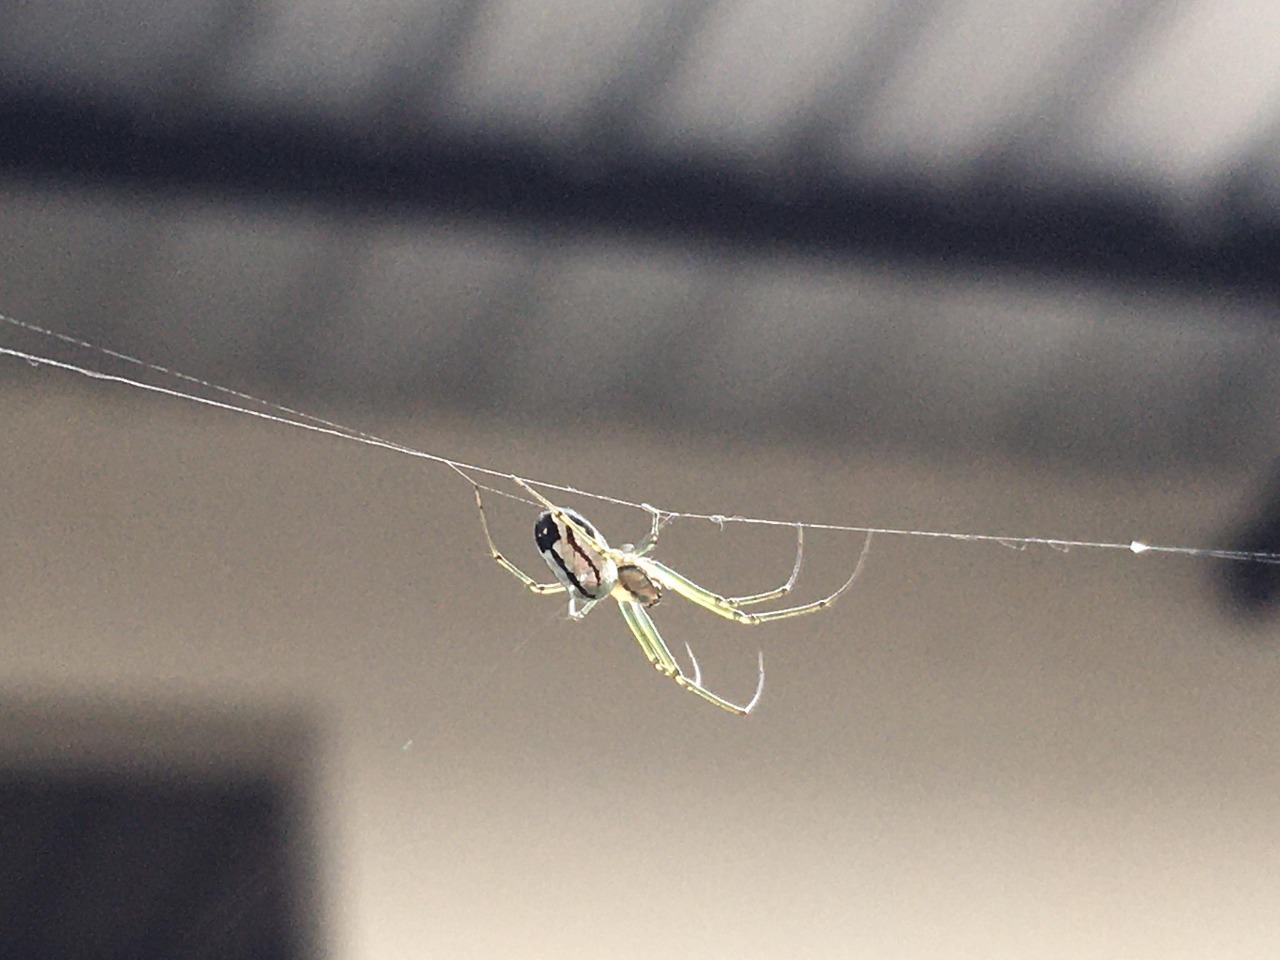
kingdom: Animalia
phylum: Arthropoda
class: Arachnida
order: Araneae
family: Tetragnathidae
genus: Leucauge
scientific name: Leucauge volupis
